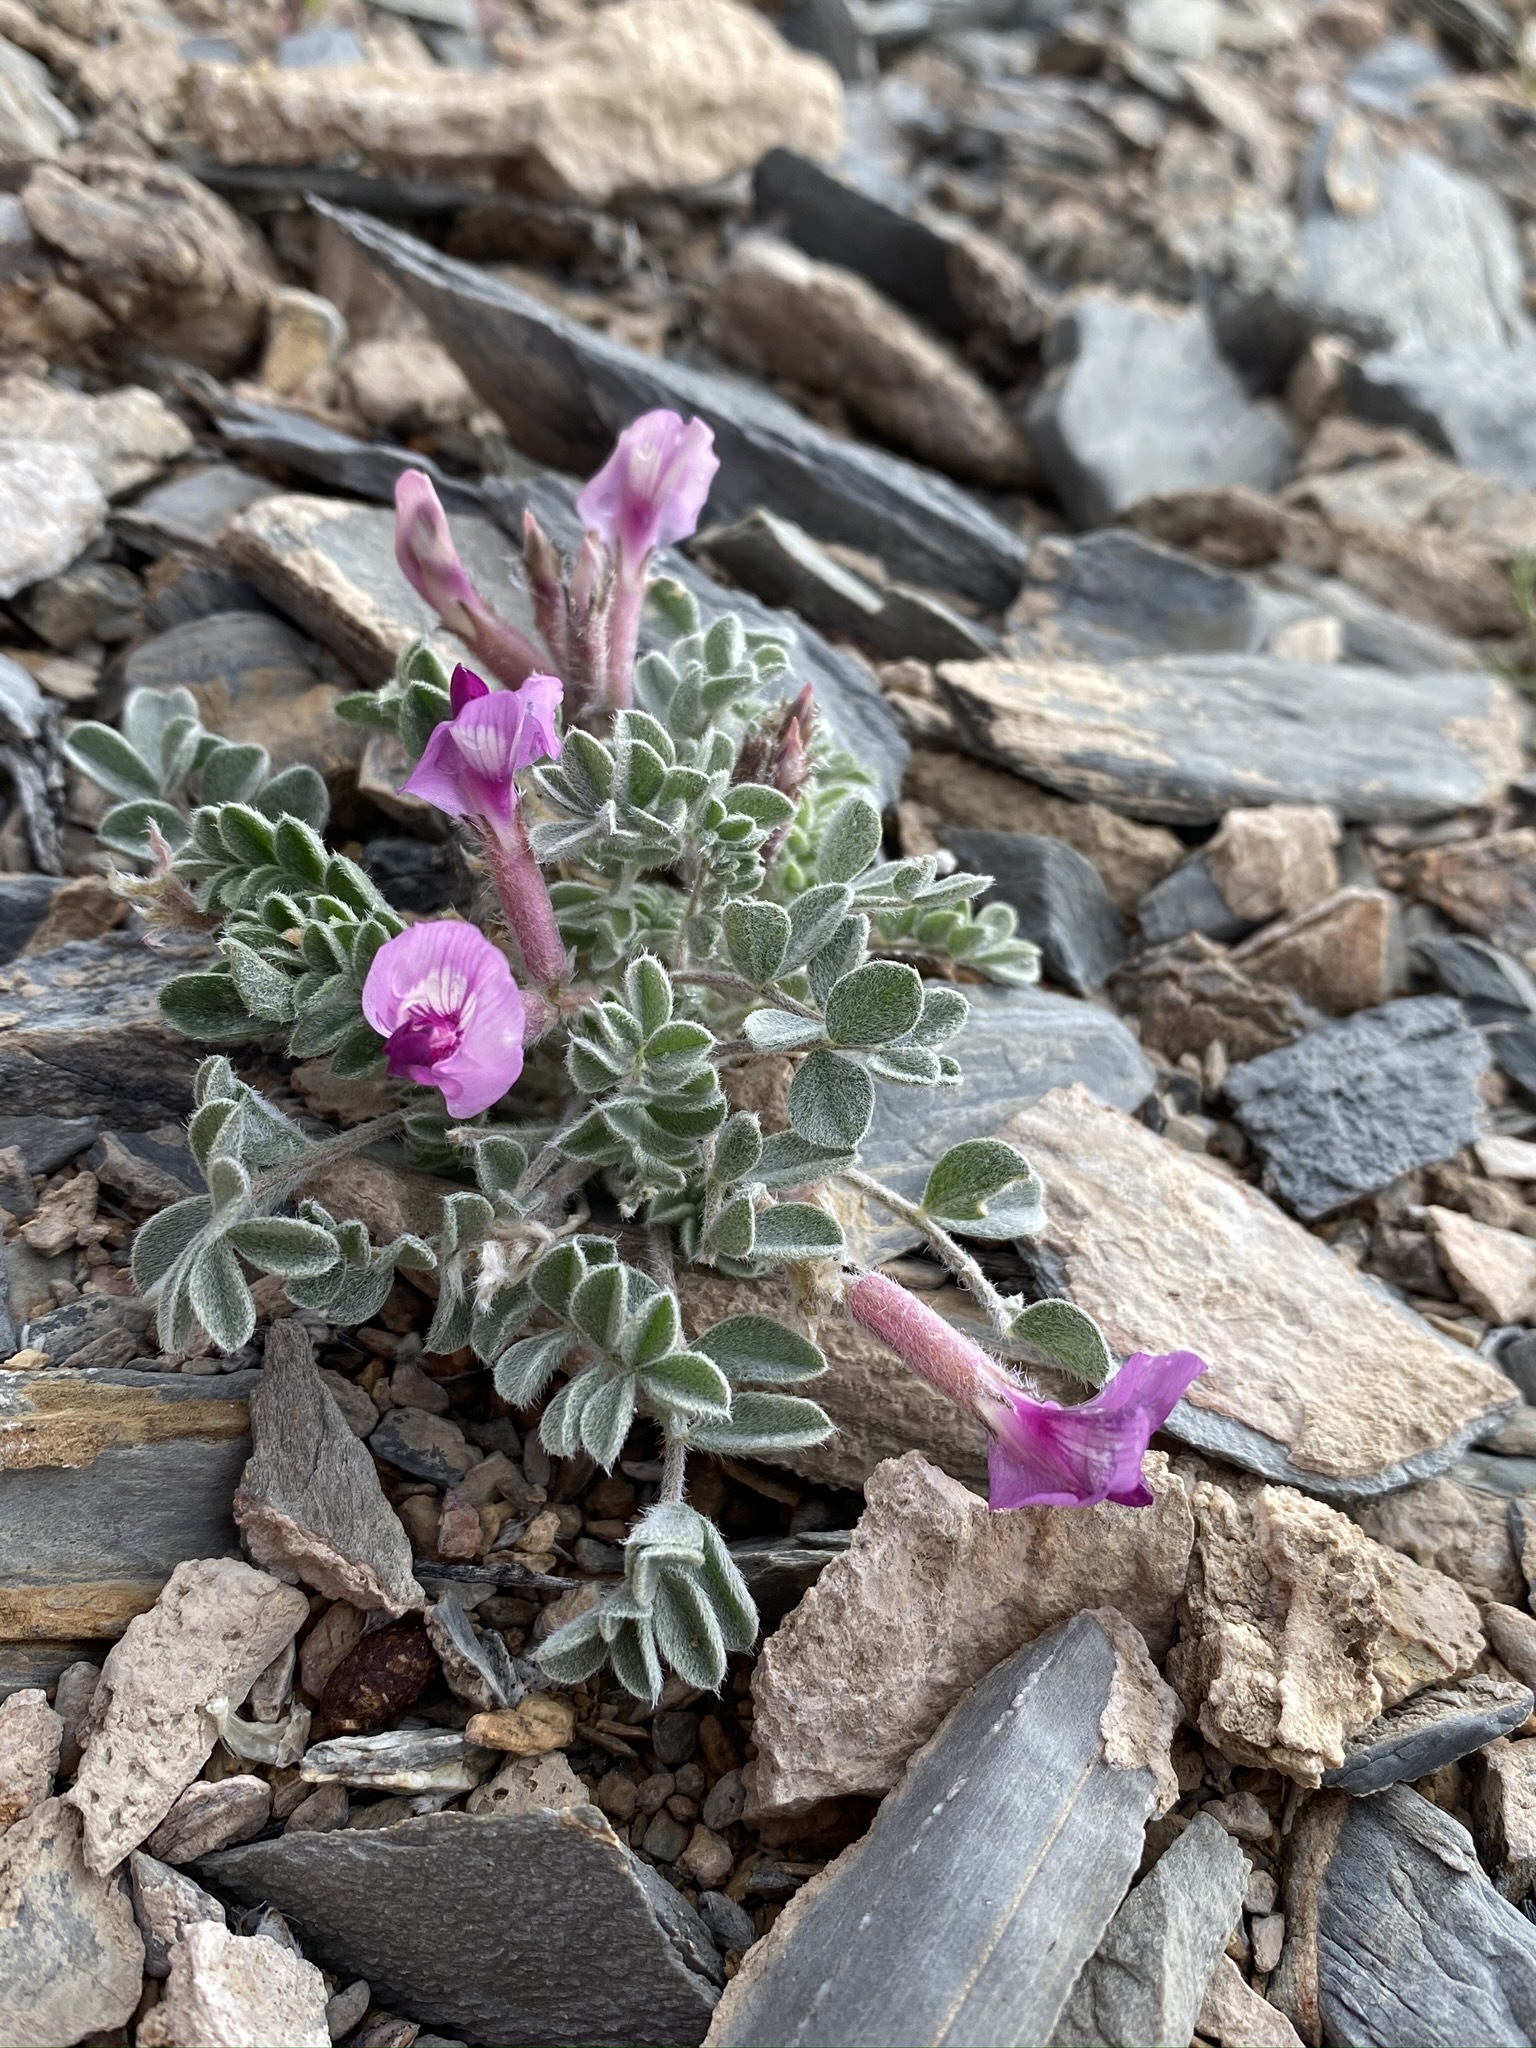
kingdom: Plantae
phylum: Tracheophyta
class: Magnoliopsida
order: Fabales
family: Fabaceae
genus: Astragalus
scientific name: Astragalus newberryi
